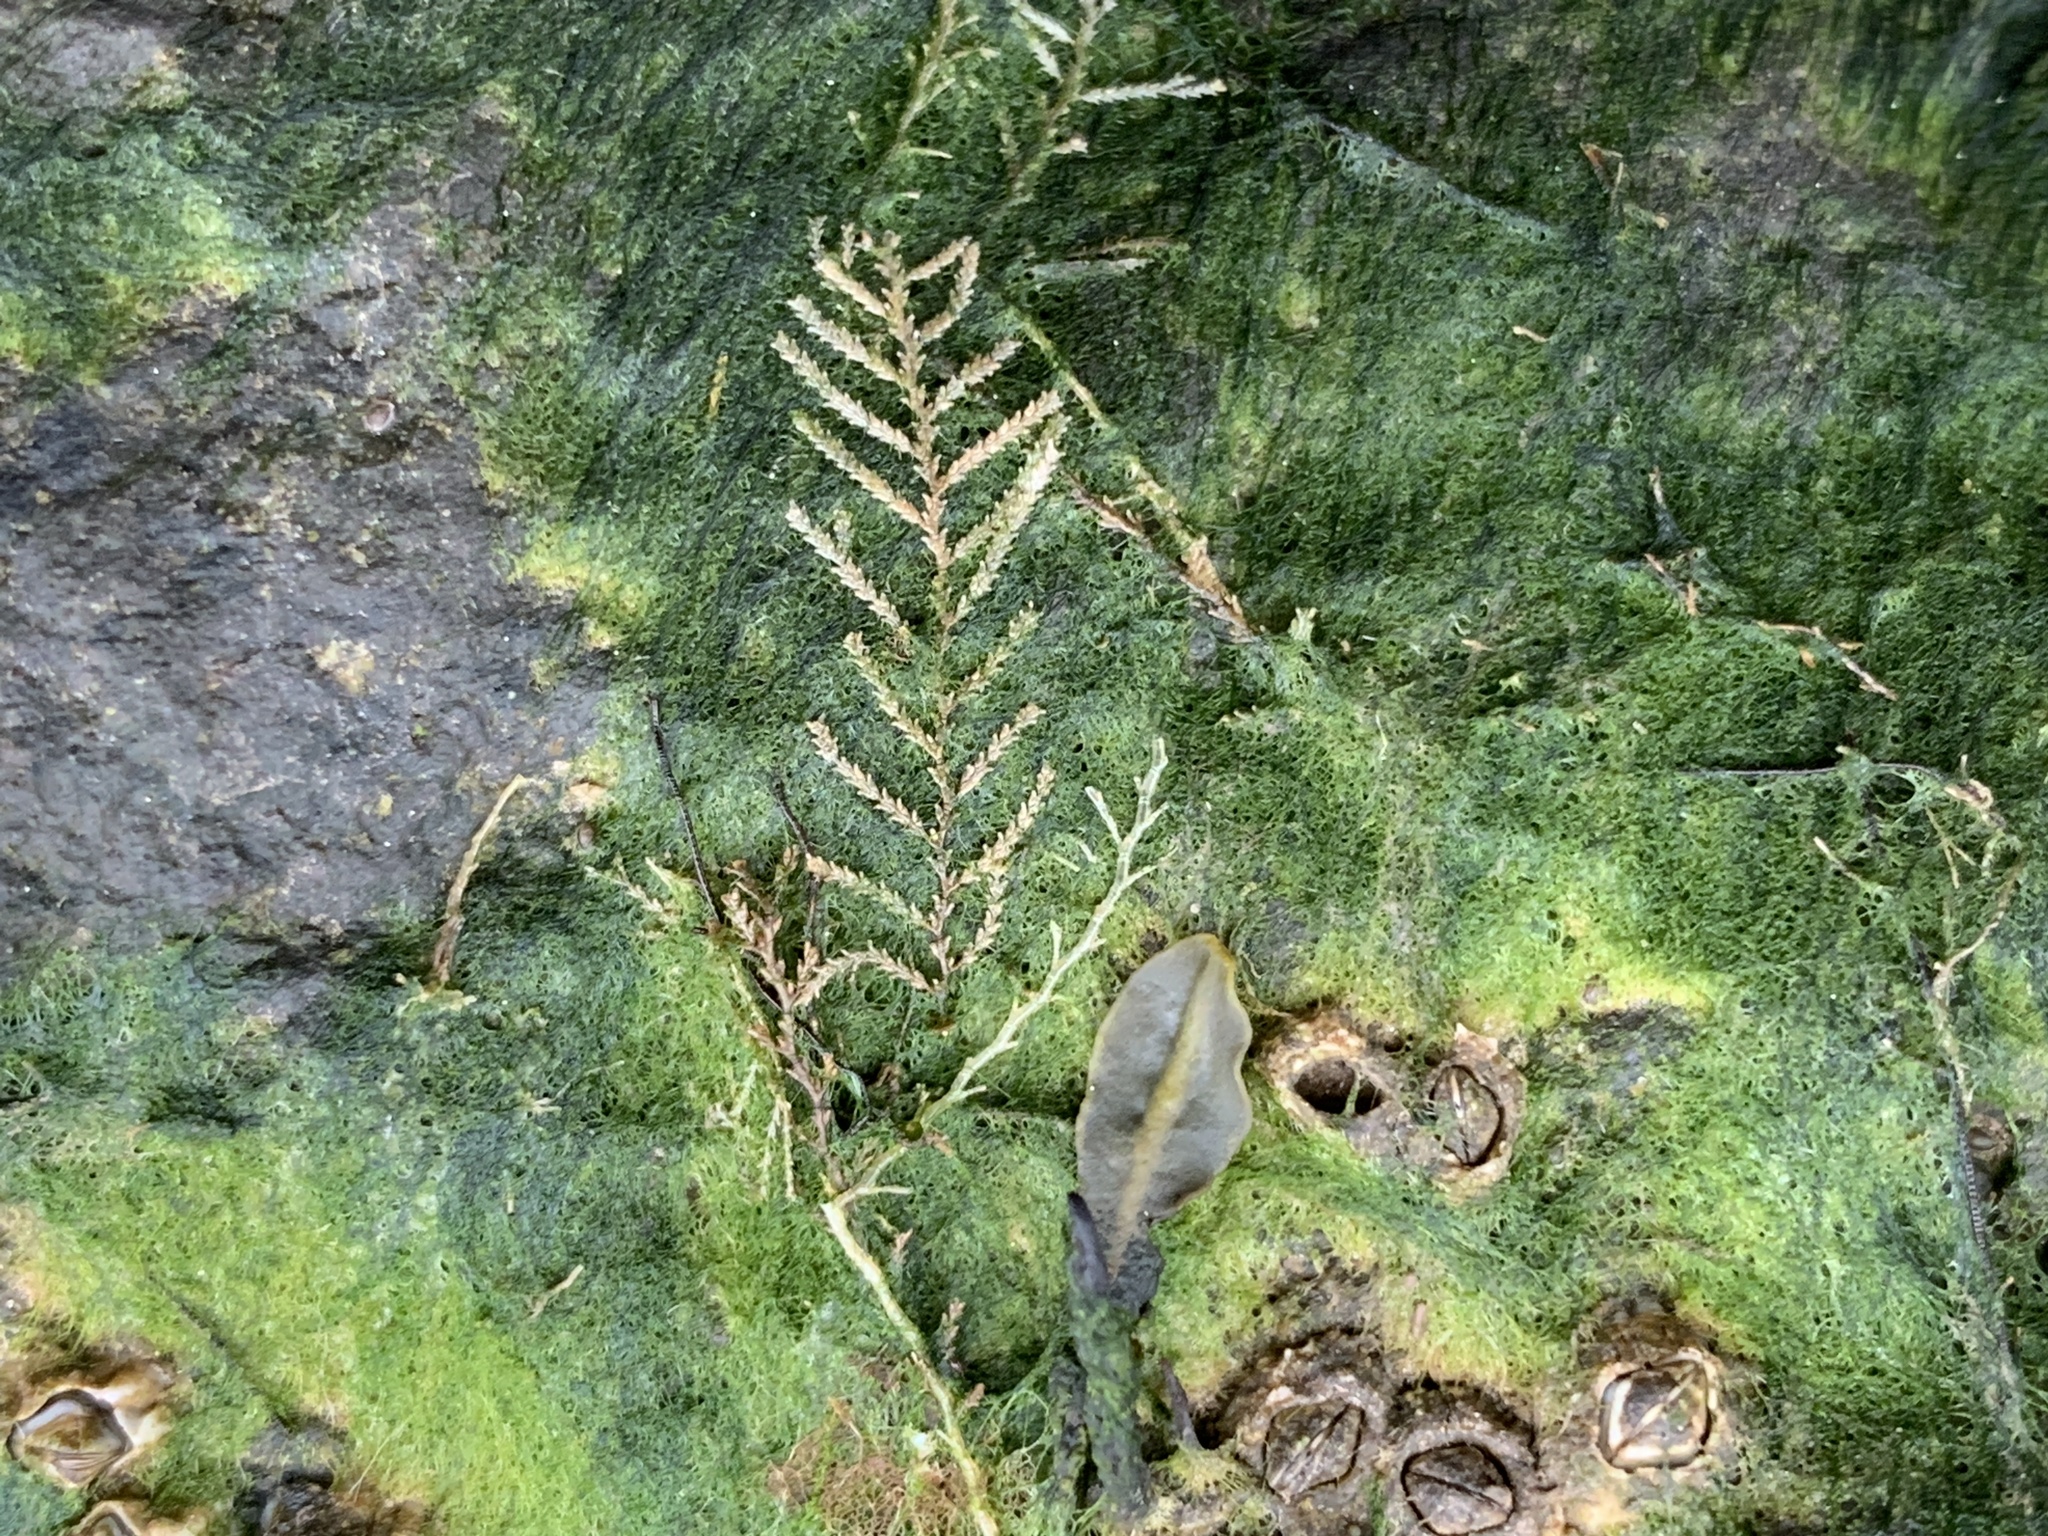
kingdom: Animalia
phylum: Cnidaria
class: Hydrozoa
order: Leptothecata
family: Sertulariidae
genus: Dynamena
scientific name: Dynamena pumila
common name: Sea oak
